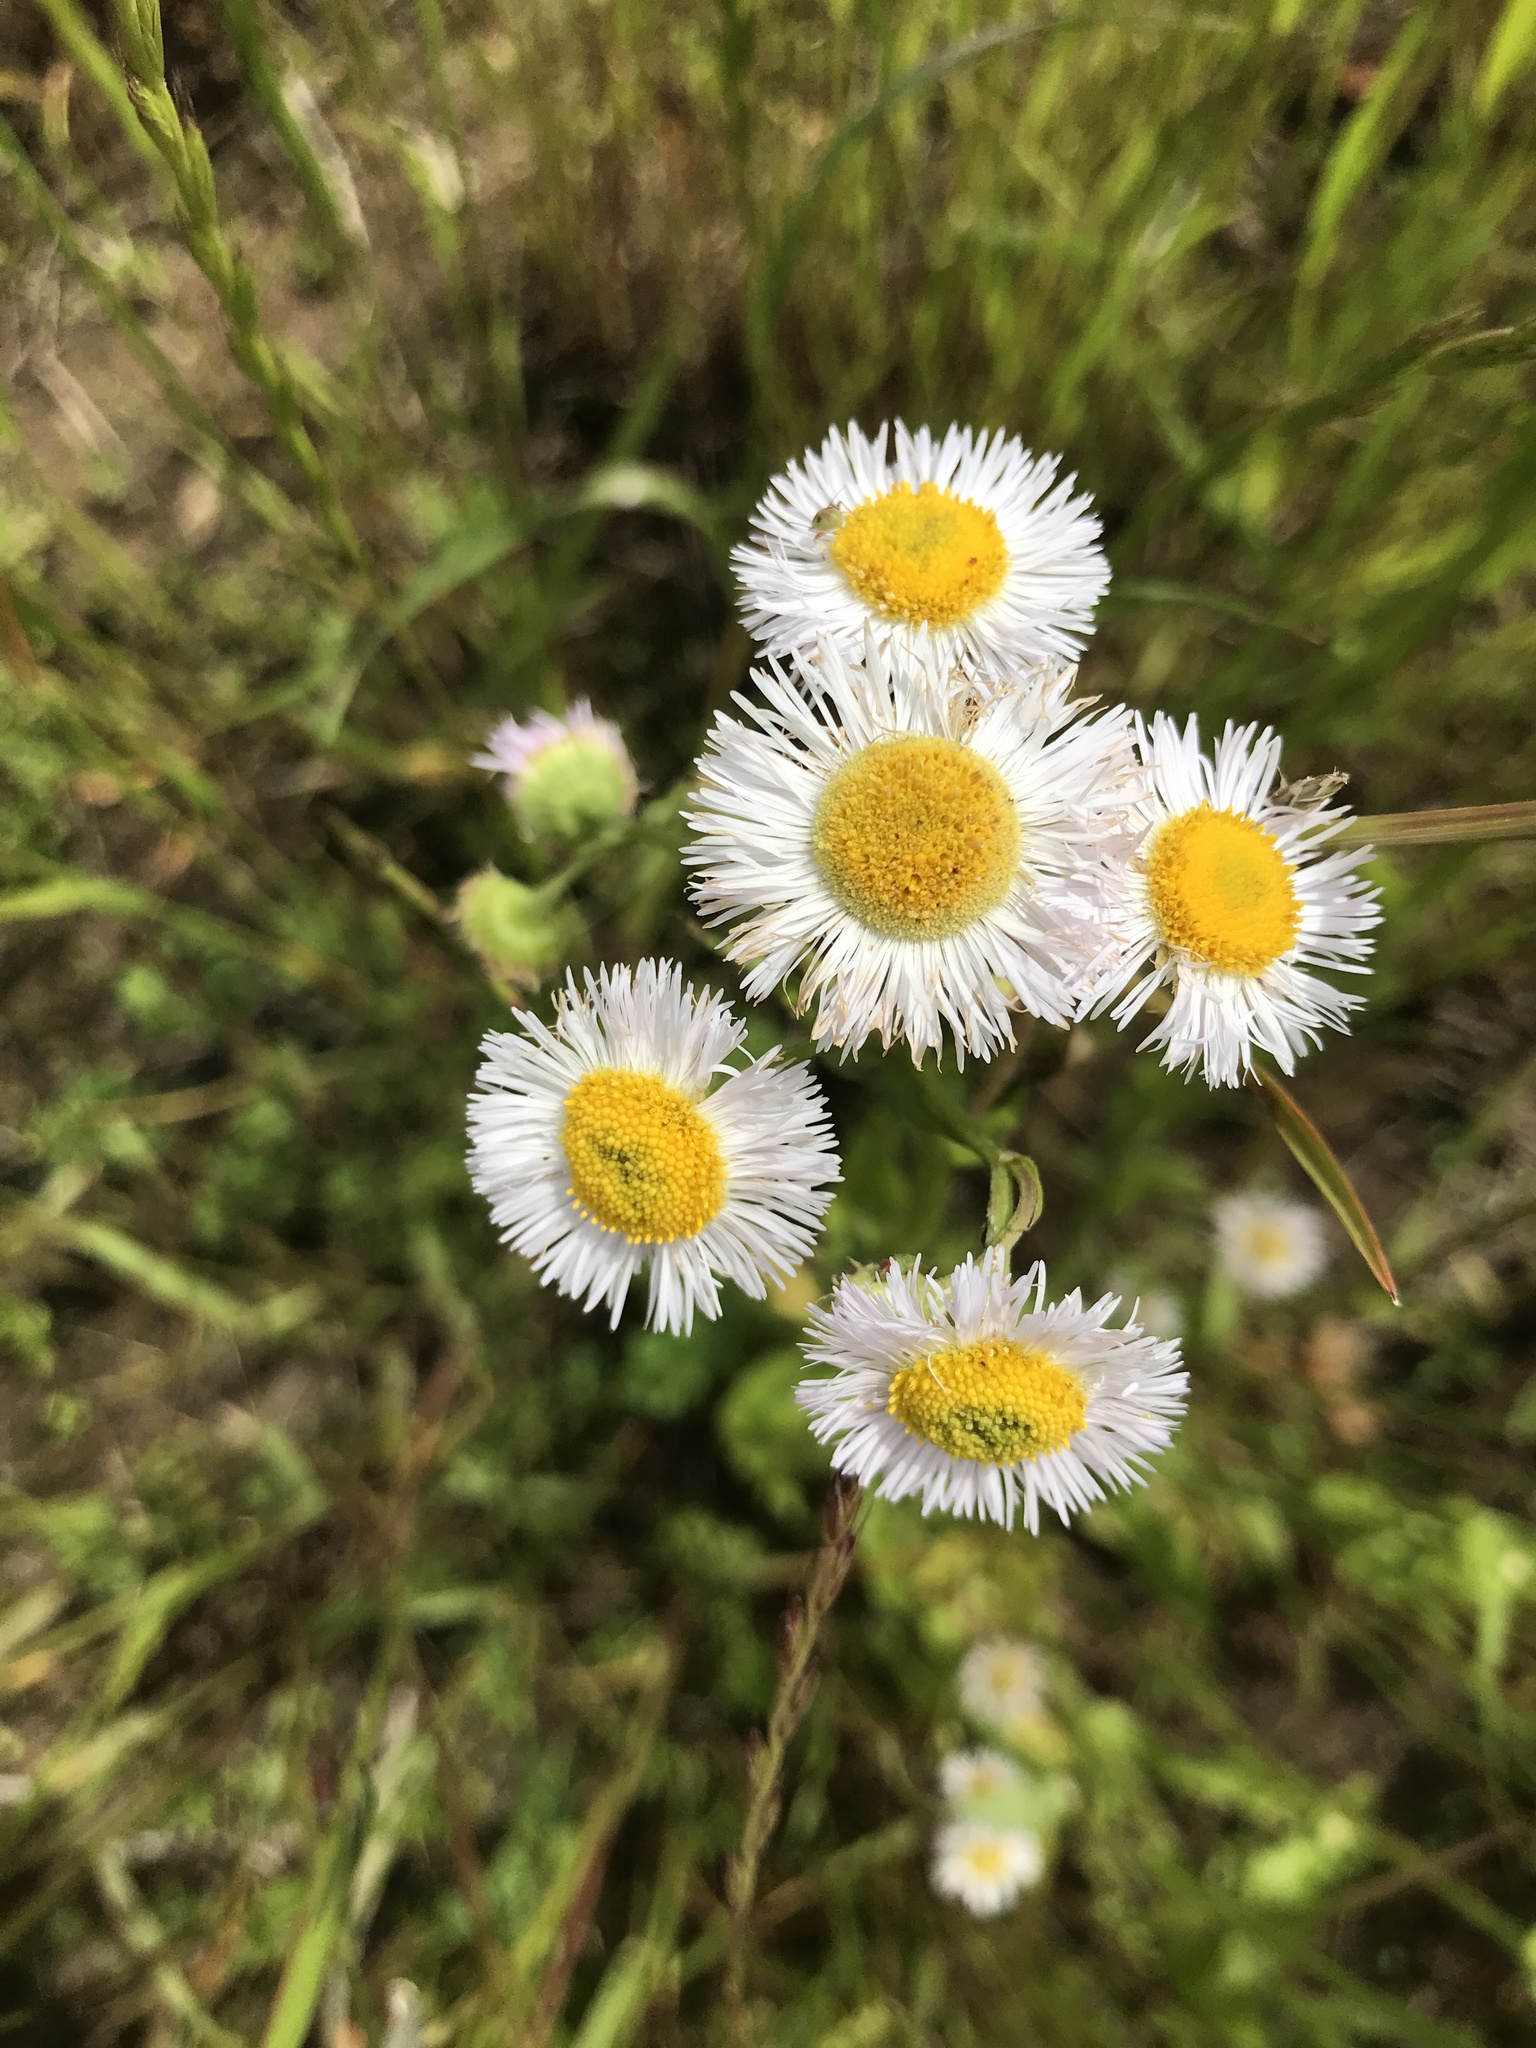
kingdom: Plantae
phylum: Tracheophyta
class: Magnoliopsida
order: Asterales
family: Asteraceae
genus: Erigeron
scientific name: Erigeron philadelphicus
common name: Robin's-plantain
